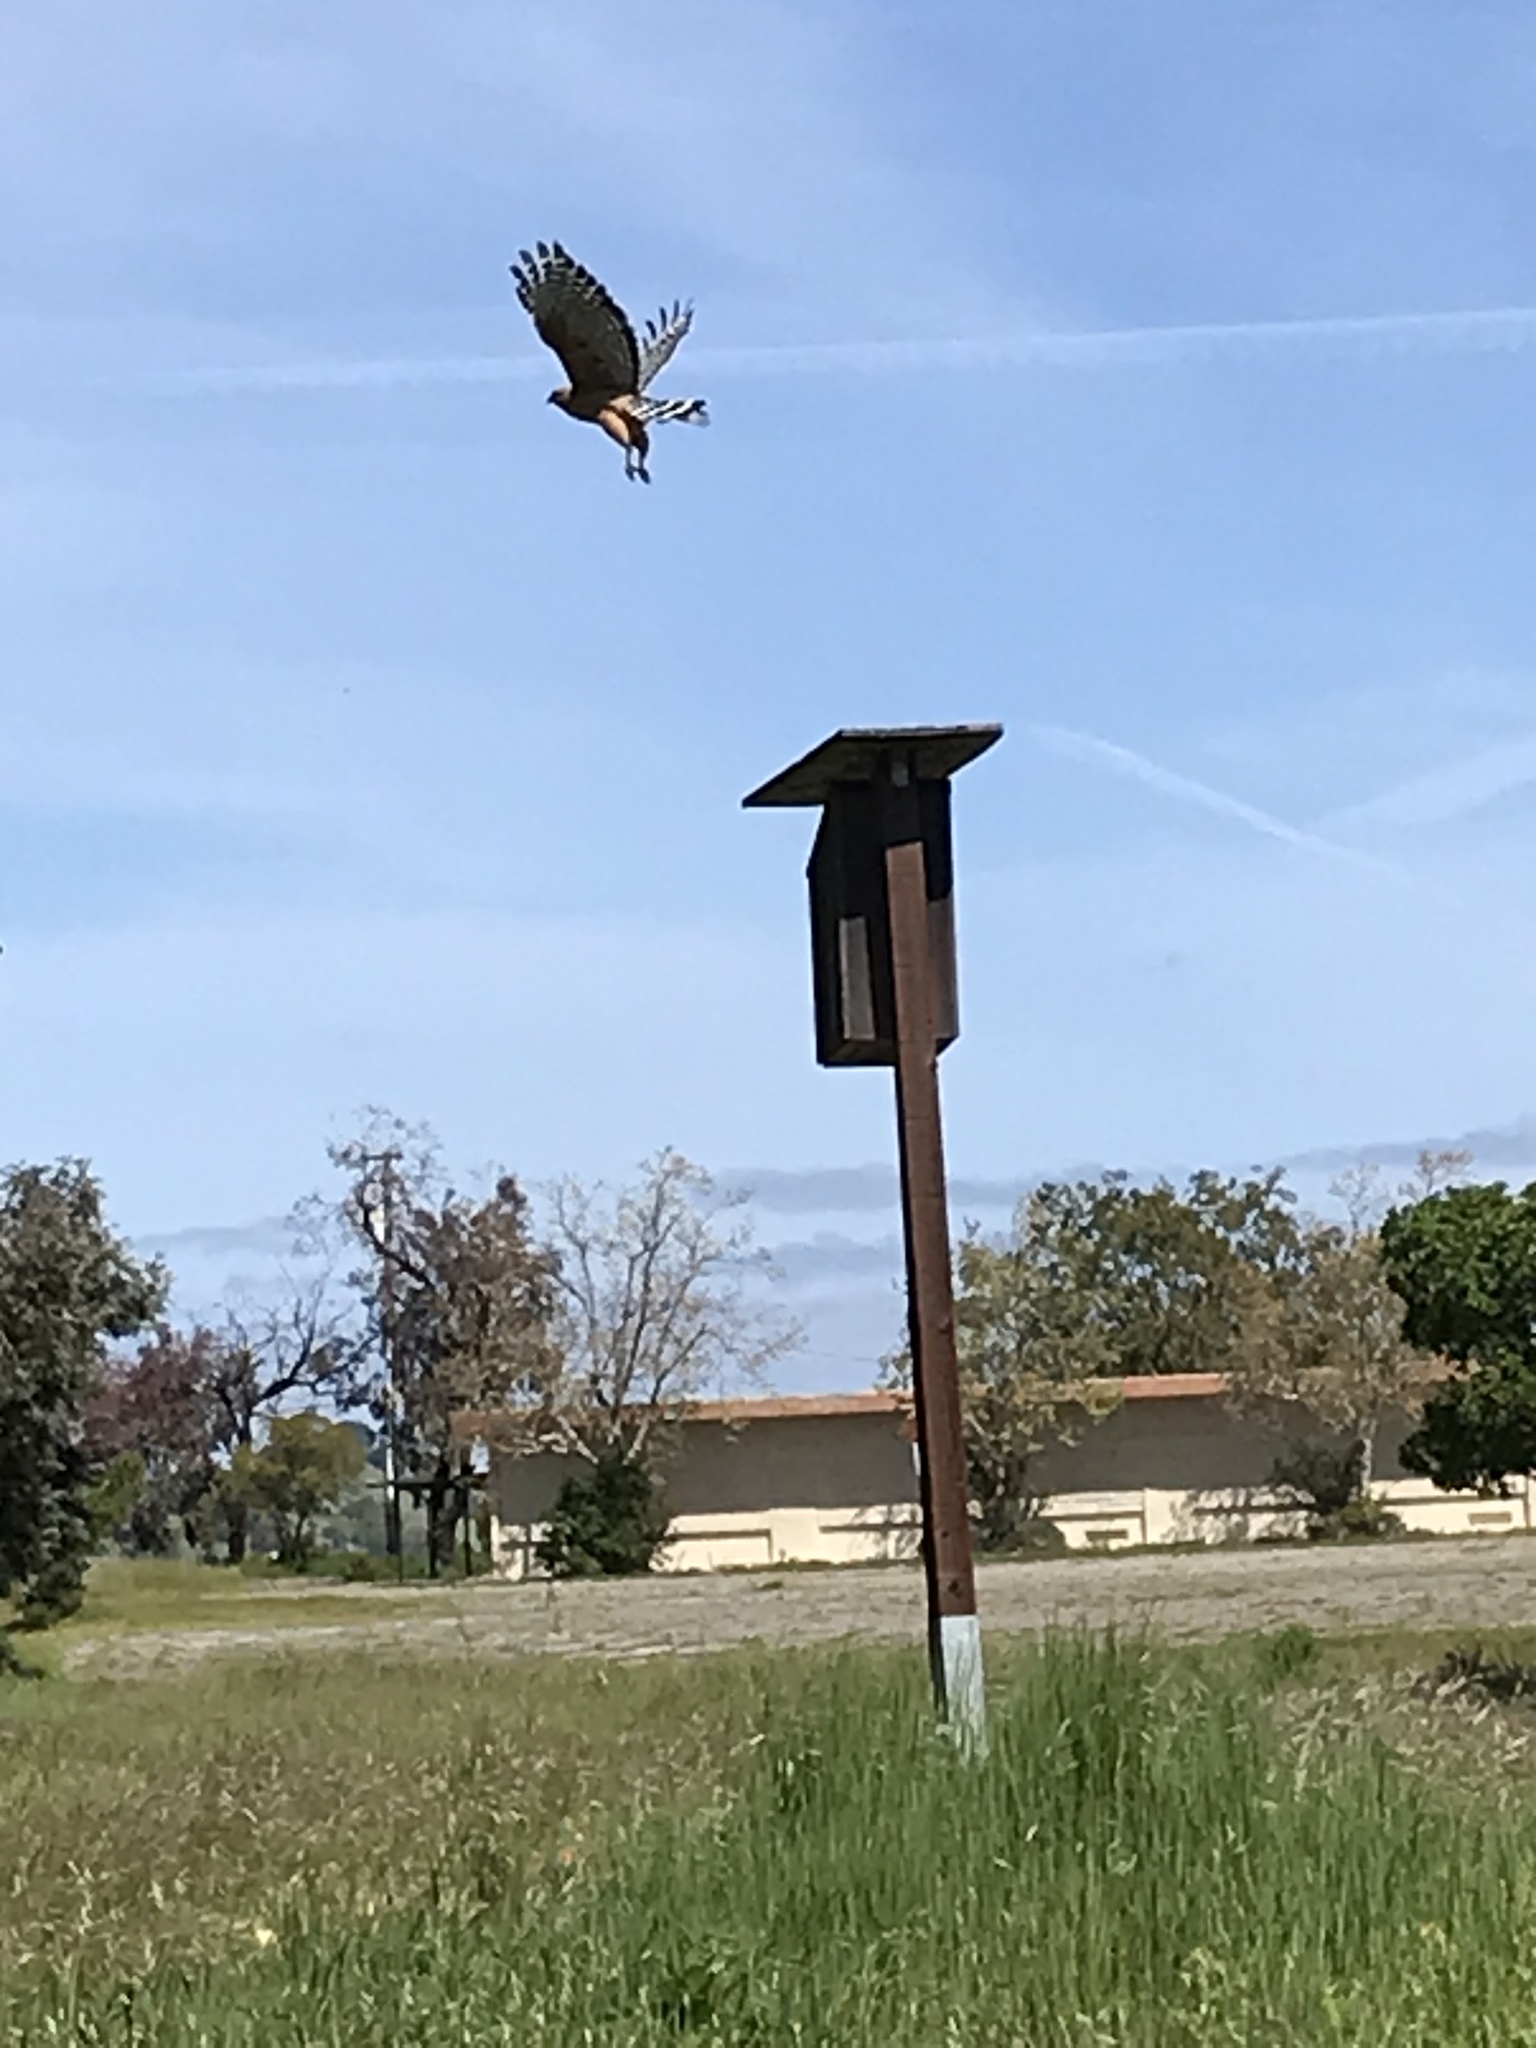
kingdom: Animalia
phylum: Chordata
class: Aves
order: Accipitriformes
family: Accipitridae
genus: Buteo
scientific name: Buteo lineatus
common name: Red-shouldered hawk
